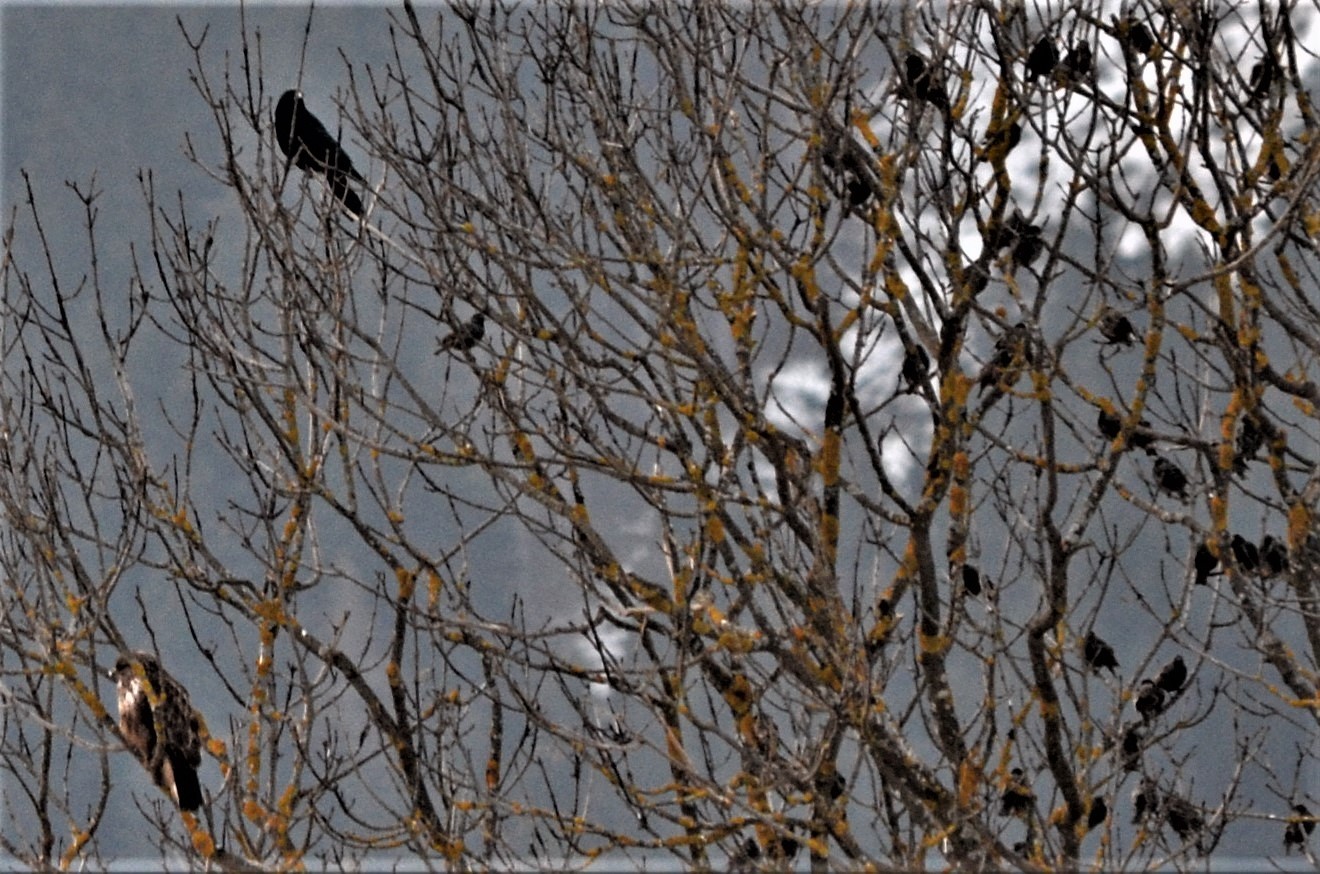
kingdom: Animalia
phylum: Chordata
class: Aves
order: Passeriformes
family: Corvidae
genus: Corvus
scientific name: Corvus corone
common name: Carrion crow
